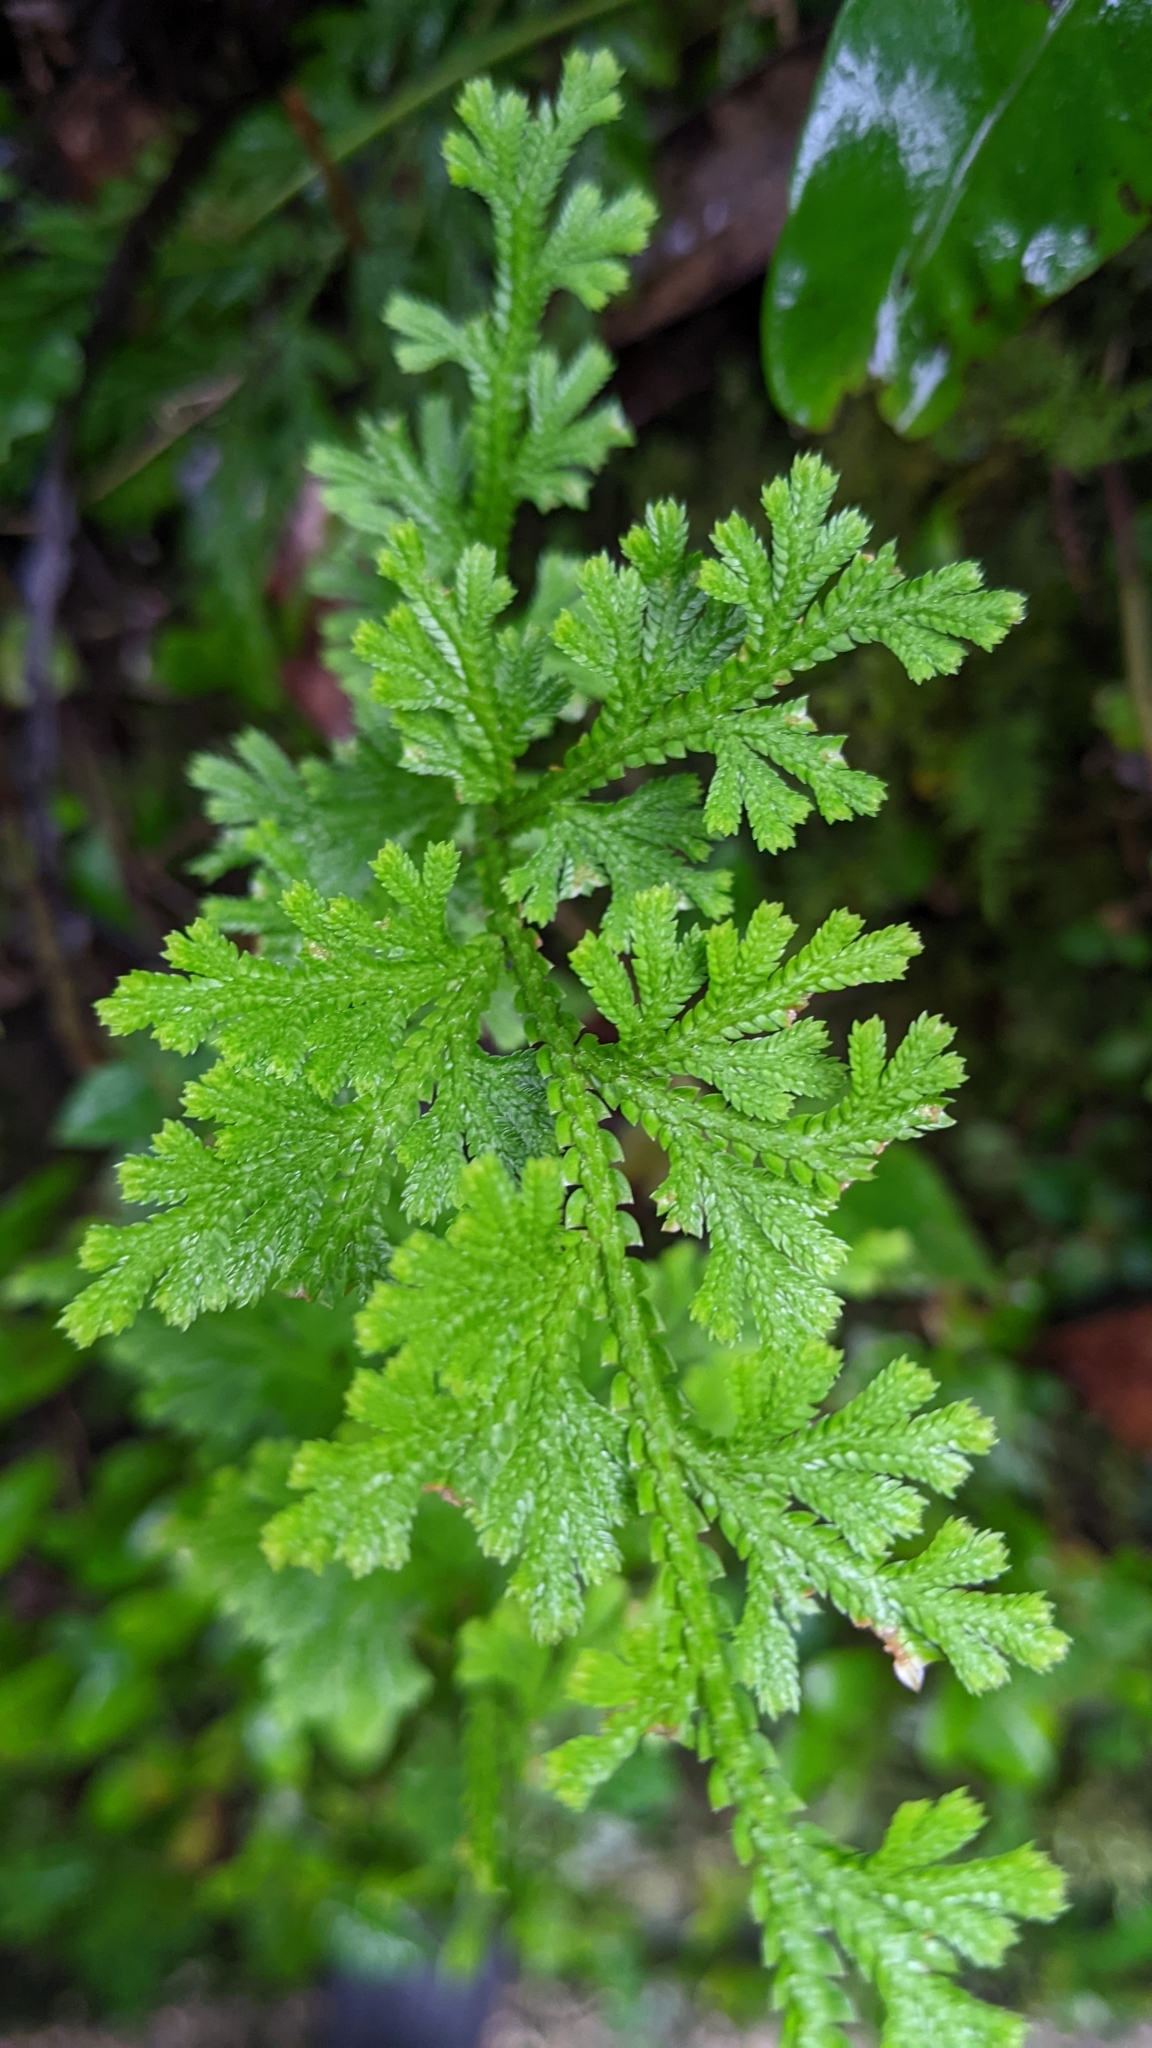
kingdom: Plantae
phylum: Tracheophyta
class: Lycopodiopsida
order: Selaginellales
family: Selaginellaceae
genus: Selaginella
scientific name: Selaginella involvens
